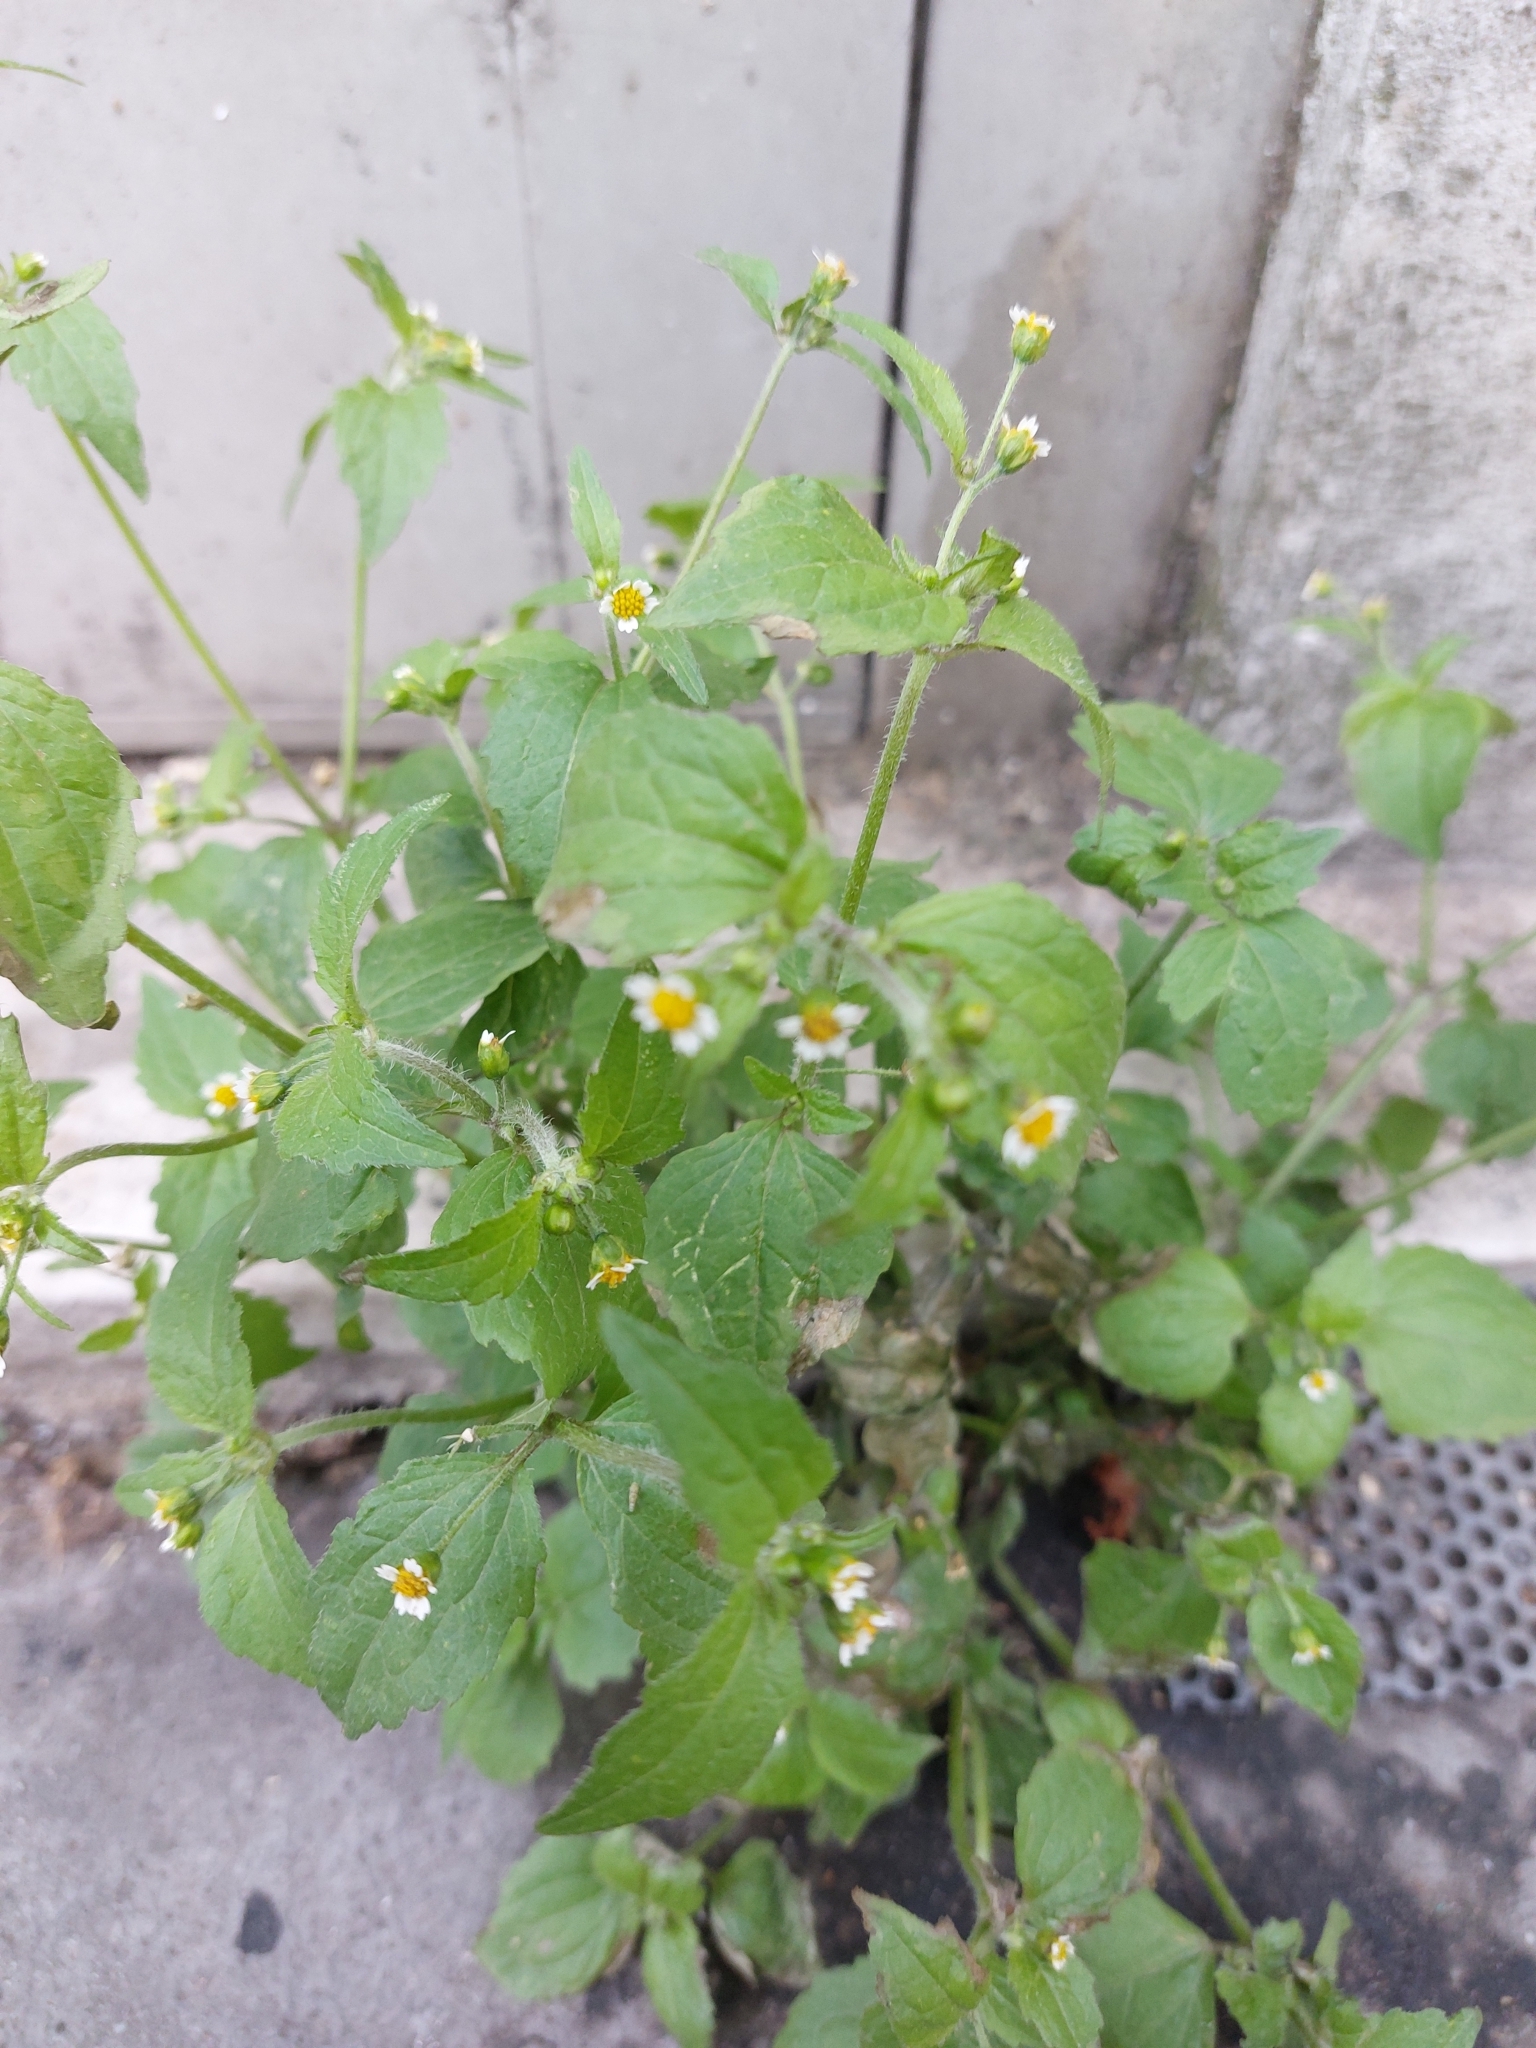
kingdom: Plantae
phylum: Tracheophyta
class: Magnoliopsida
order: Asterales
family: Asteraceae
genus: Galinsoga
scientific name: Galinsoga quadriradiata
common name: Shaggy soldier
